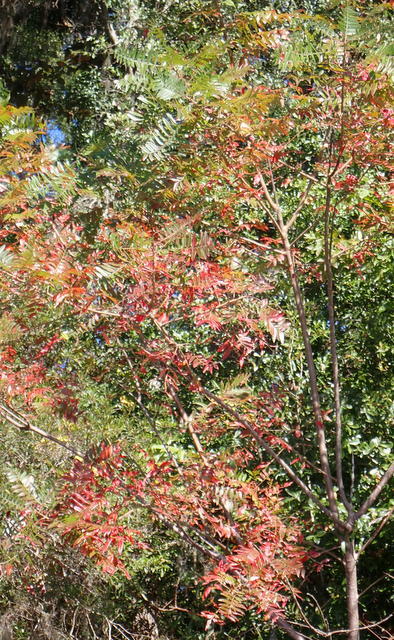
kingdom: Plantae
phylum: Tracheophyta
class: Magnoliopsida
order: Sapindales
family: Anacardiaceae
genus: Rhus
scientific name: Rhus copallina
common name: Shining sumac
